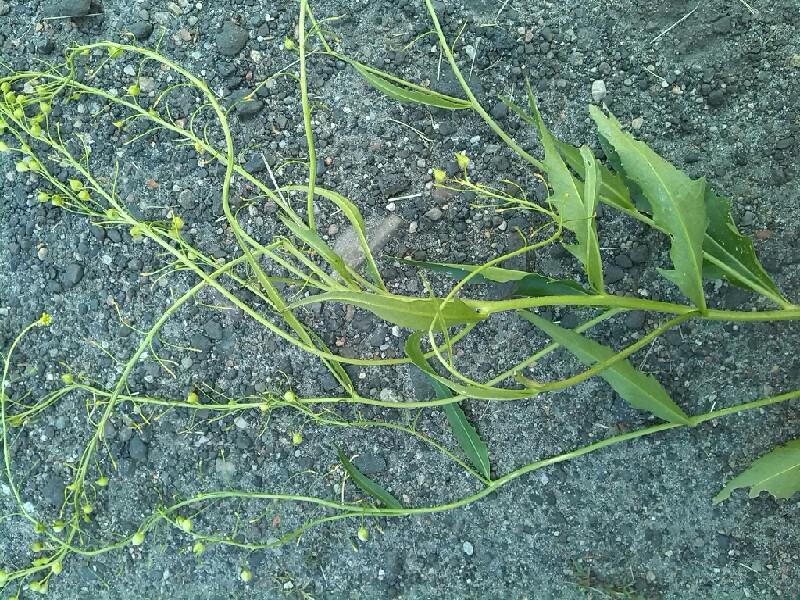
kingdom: Plantae
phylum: Tracheophyta
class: Magnoliopsida
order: Brassicales
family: Brassicaceae
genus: Bunias
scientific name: Bunias orientalis
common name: Warty-cabbage
